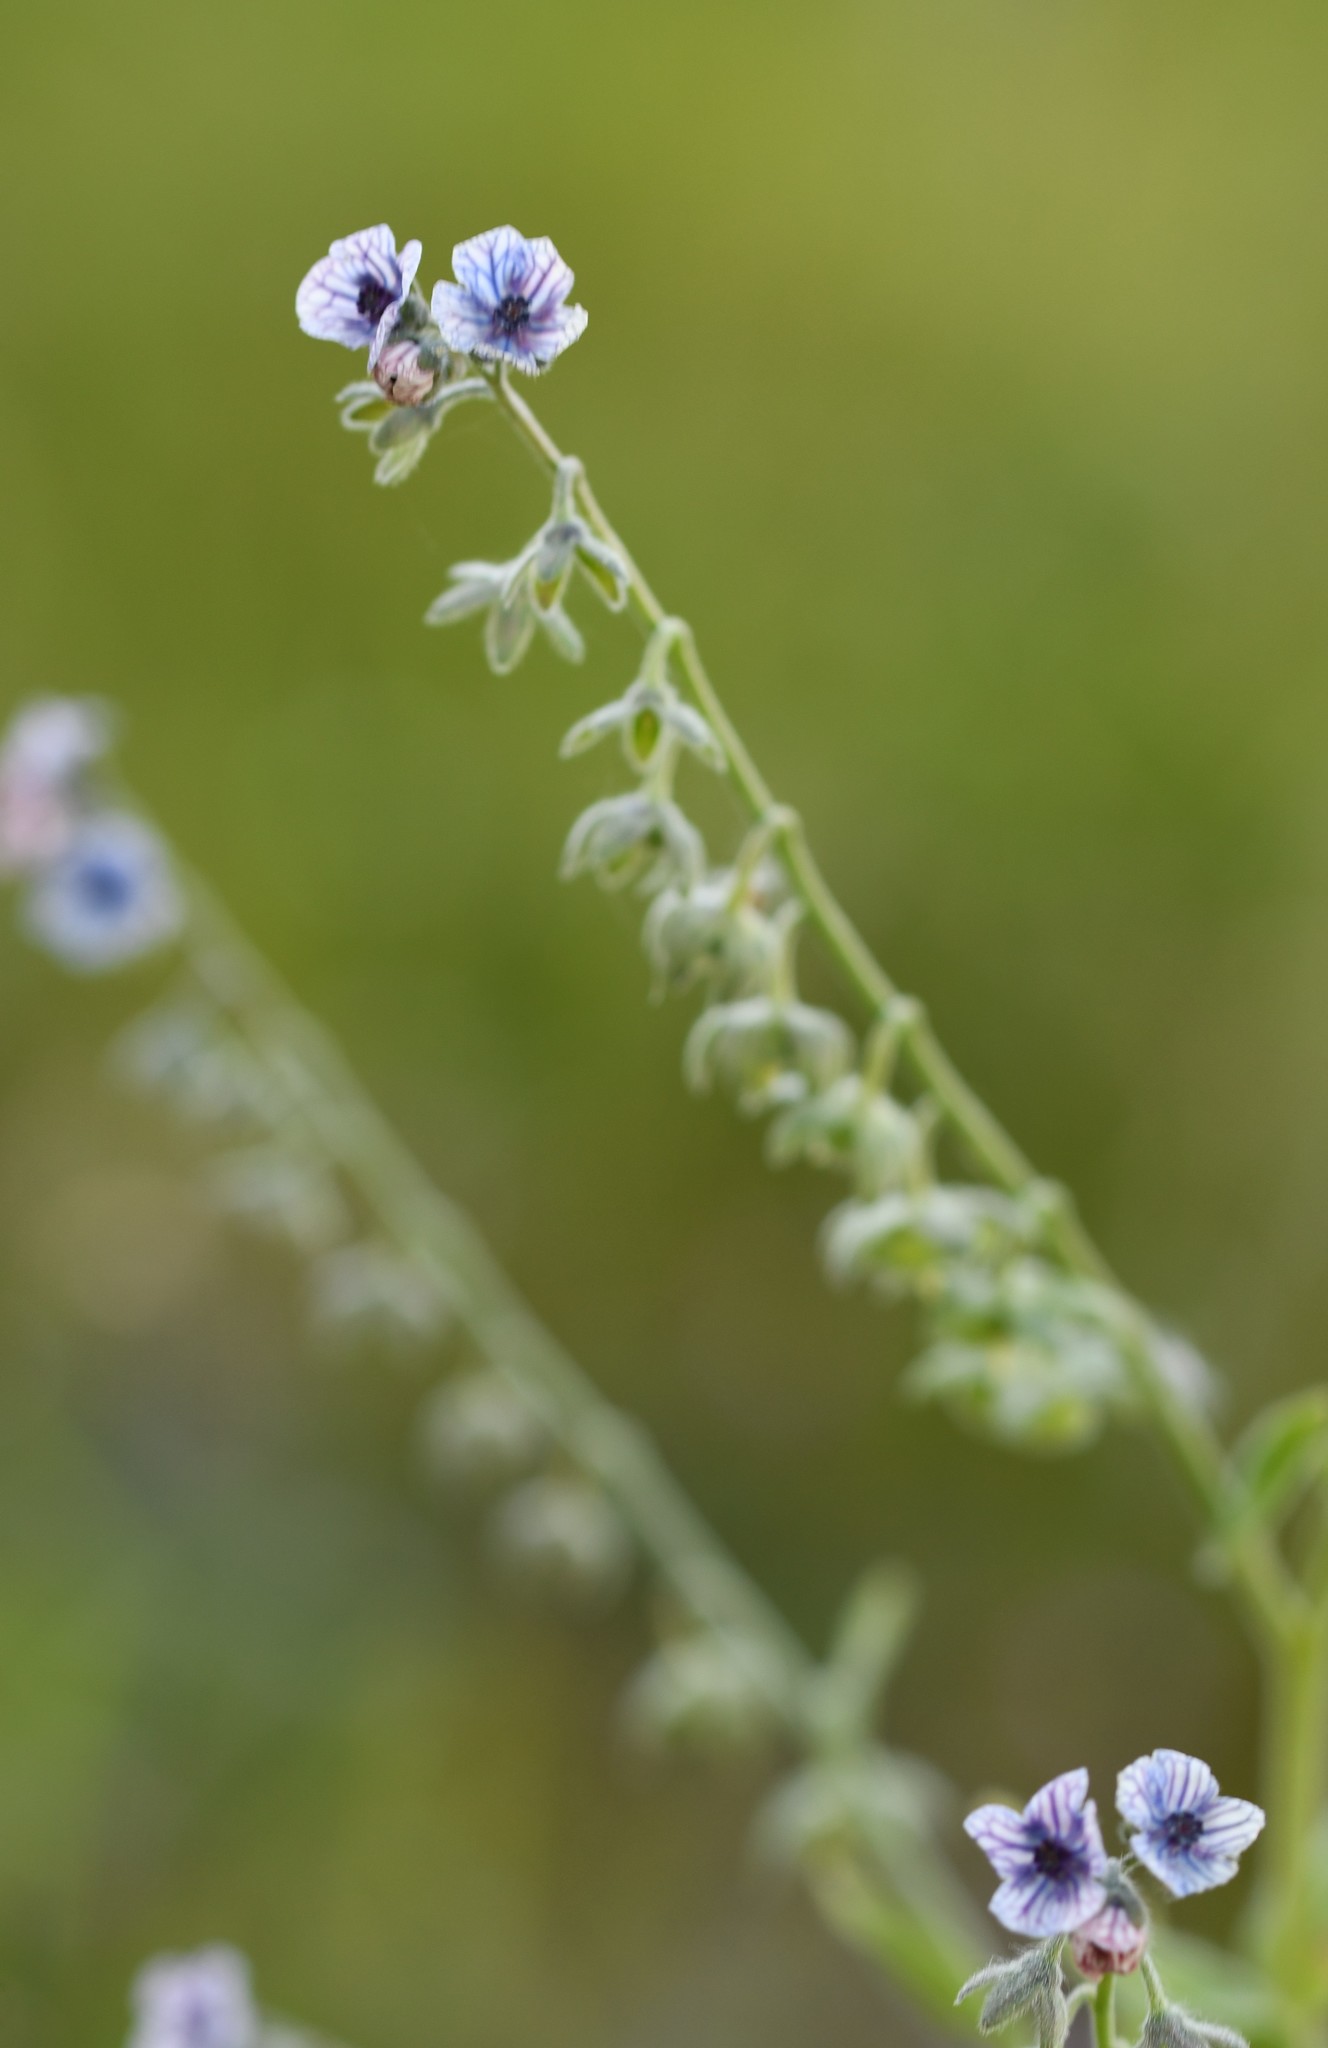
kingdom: Plantae
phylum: Tracheophyta
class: Magnoliopsida
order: Boraginales
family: Boraginaceae
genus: Cynoglossum
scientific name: Cynoglossum creticum
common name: Blue hound's tongue
